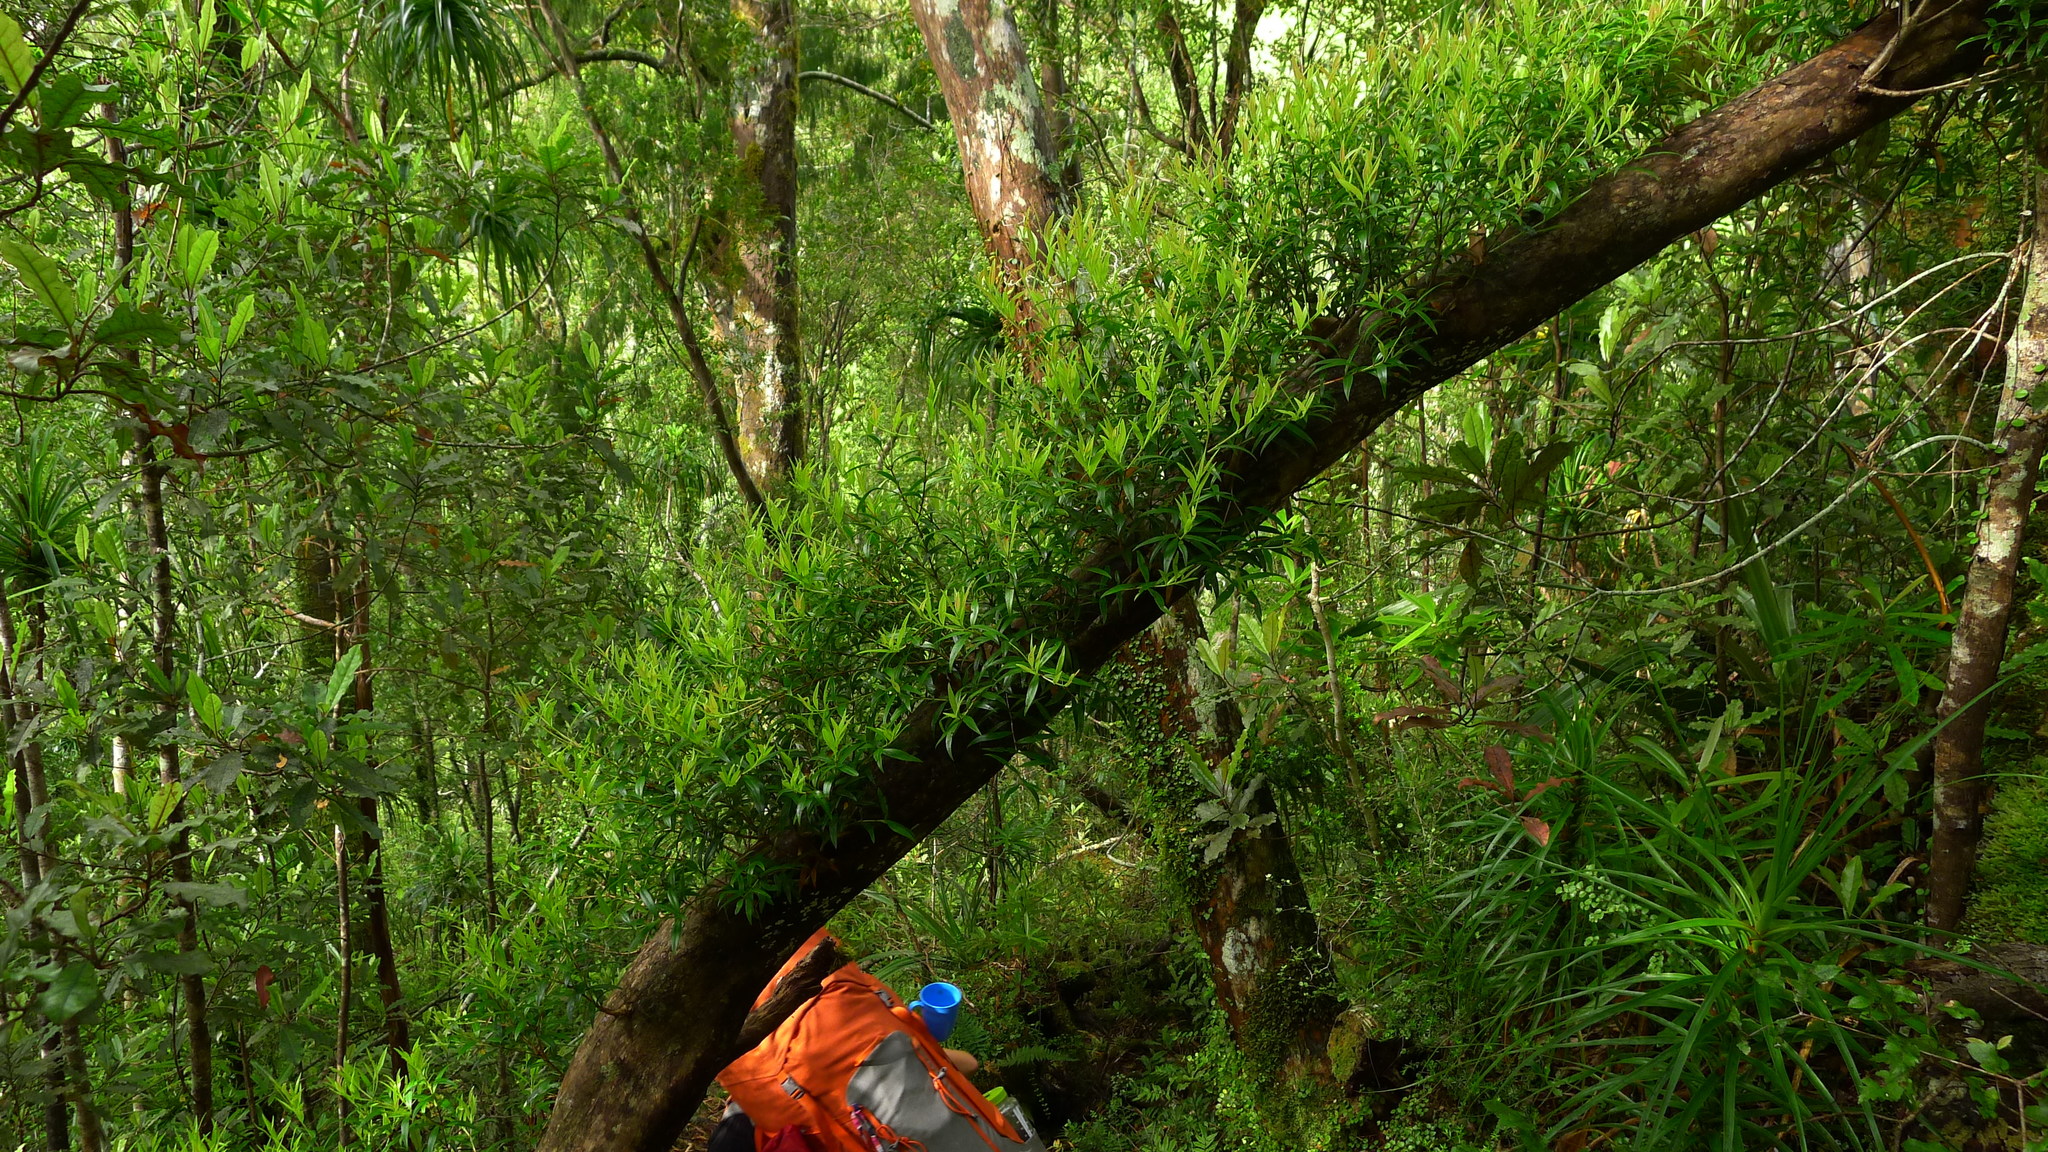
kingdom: Plantae
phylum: Tracheophyta
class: Magnoliopsida
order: Myrtales
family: Myrtaceae
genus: Metrosideros
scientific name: Metrosideros umbellata
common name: Southern rata
